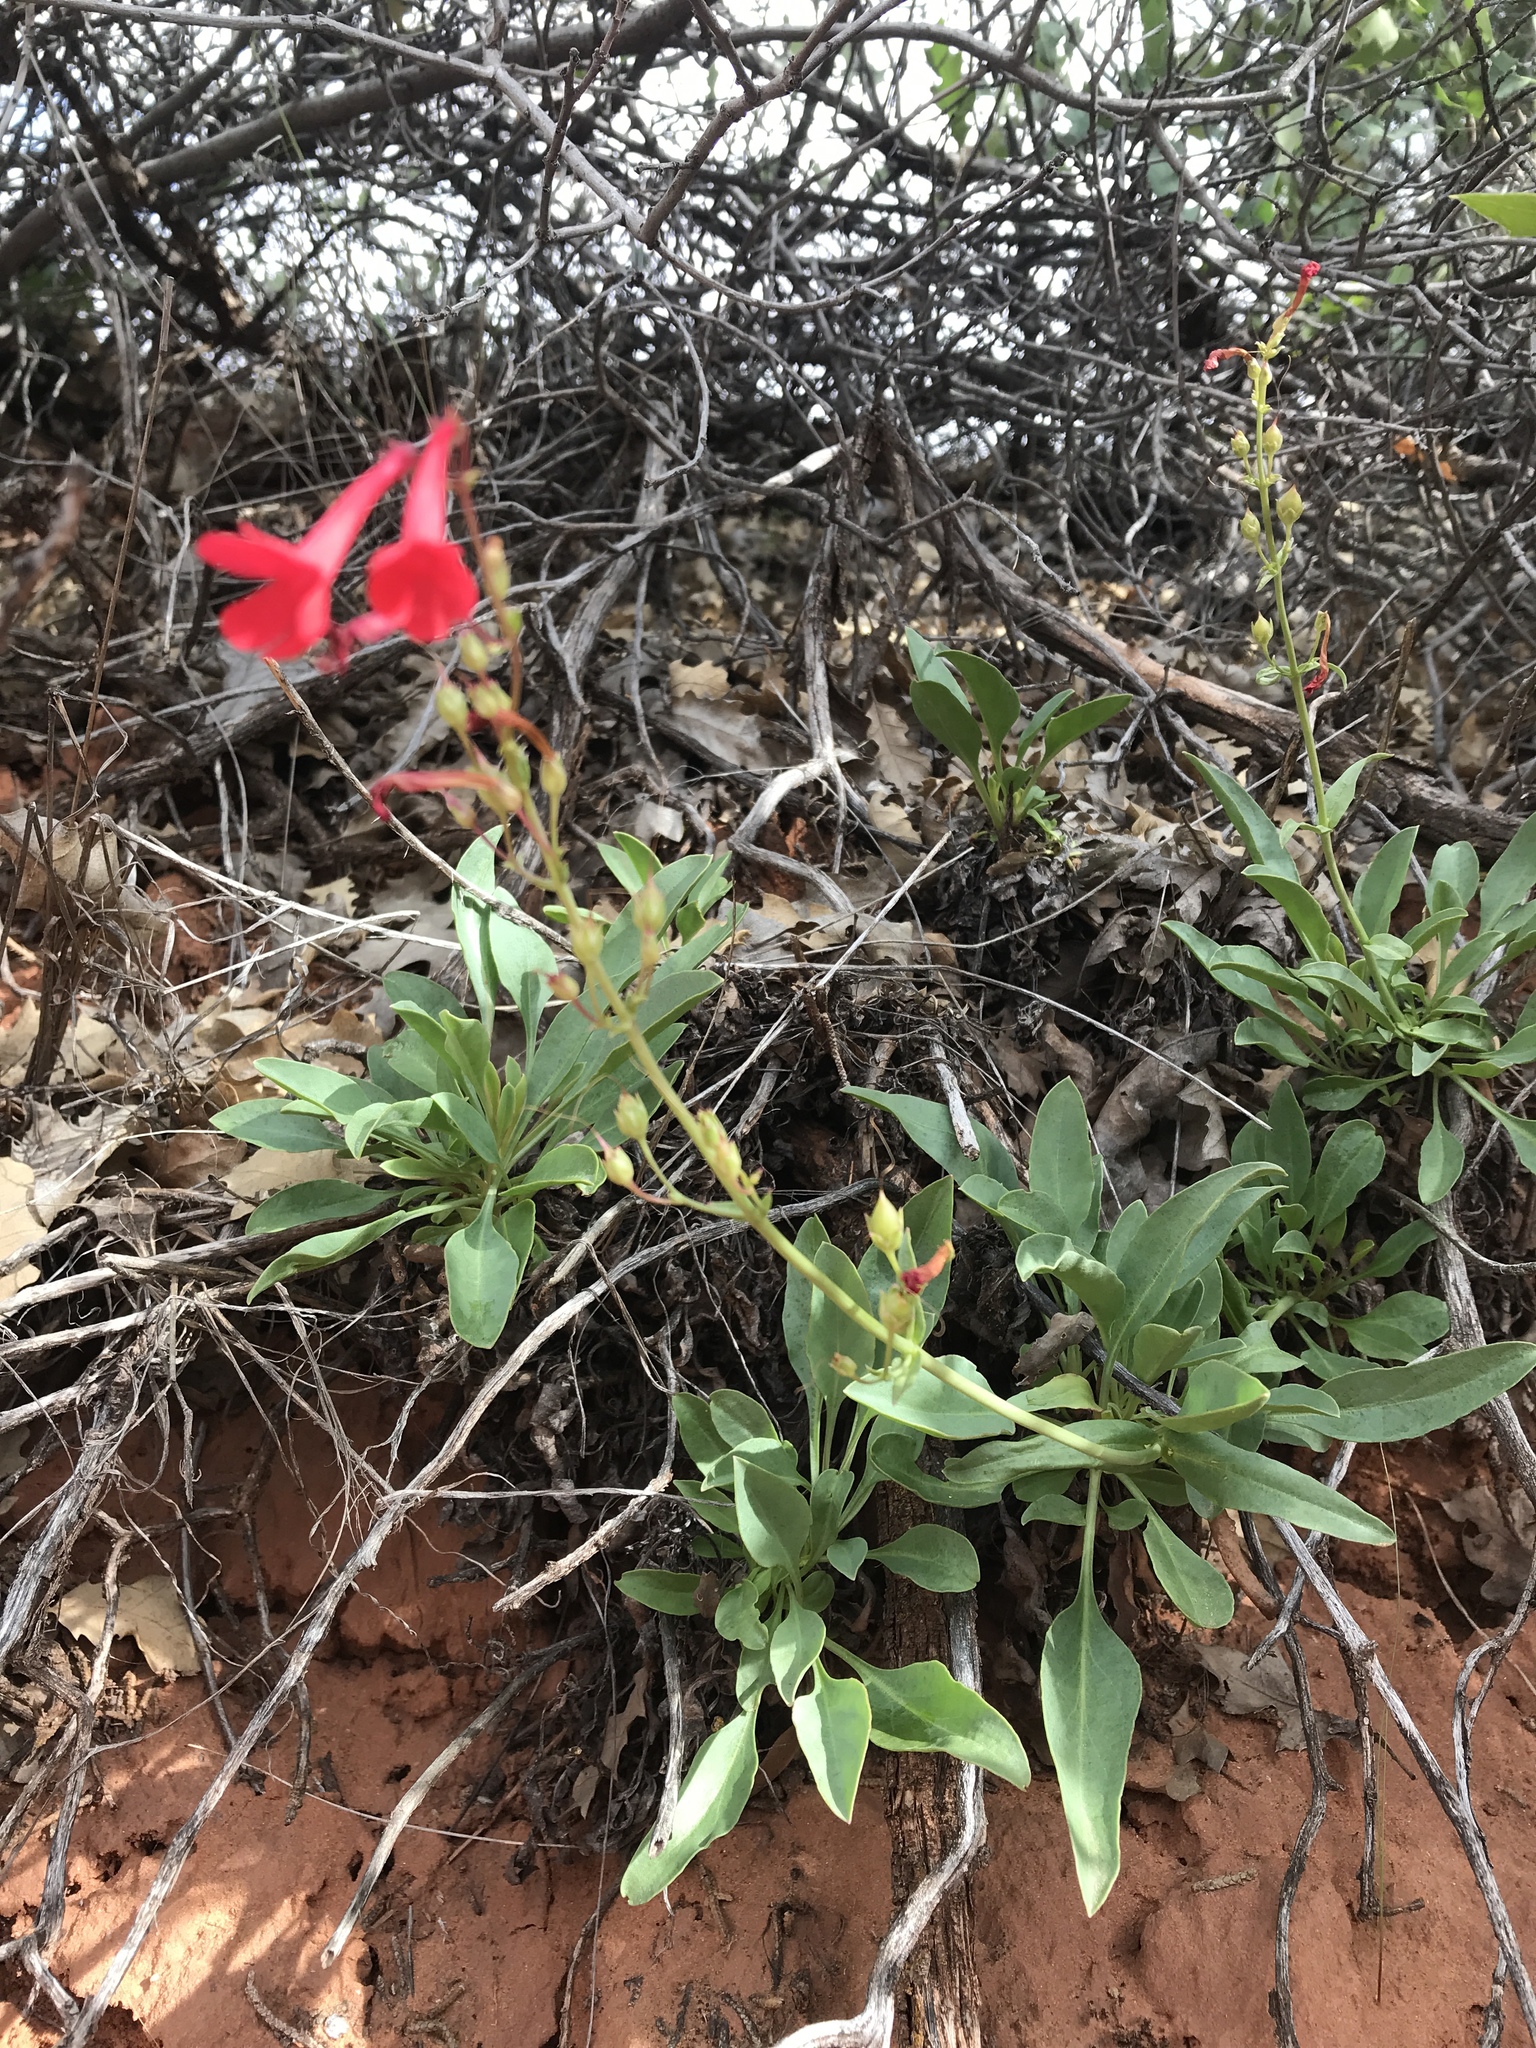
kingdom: Plantae
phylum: Tracheophyta
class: Magnoliopsida
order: Lamiales
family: Plantaginaceae
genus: Penstemon
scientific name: Penstemon utahensis
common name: Utah penstemon
